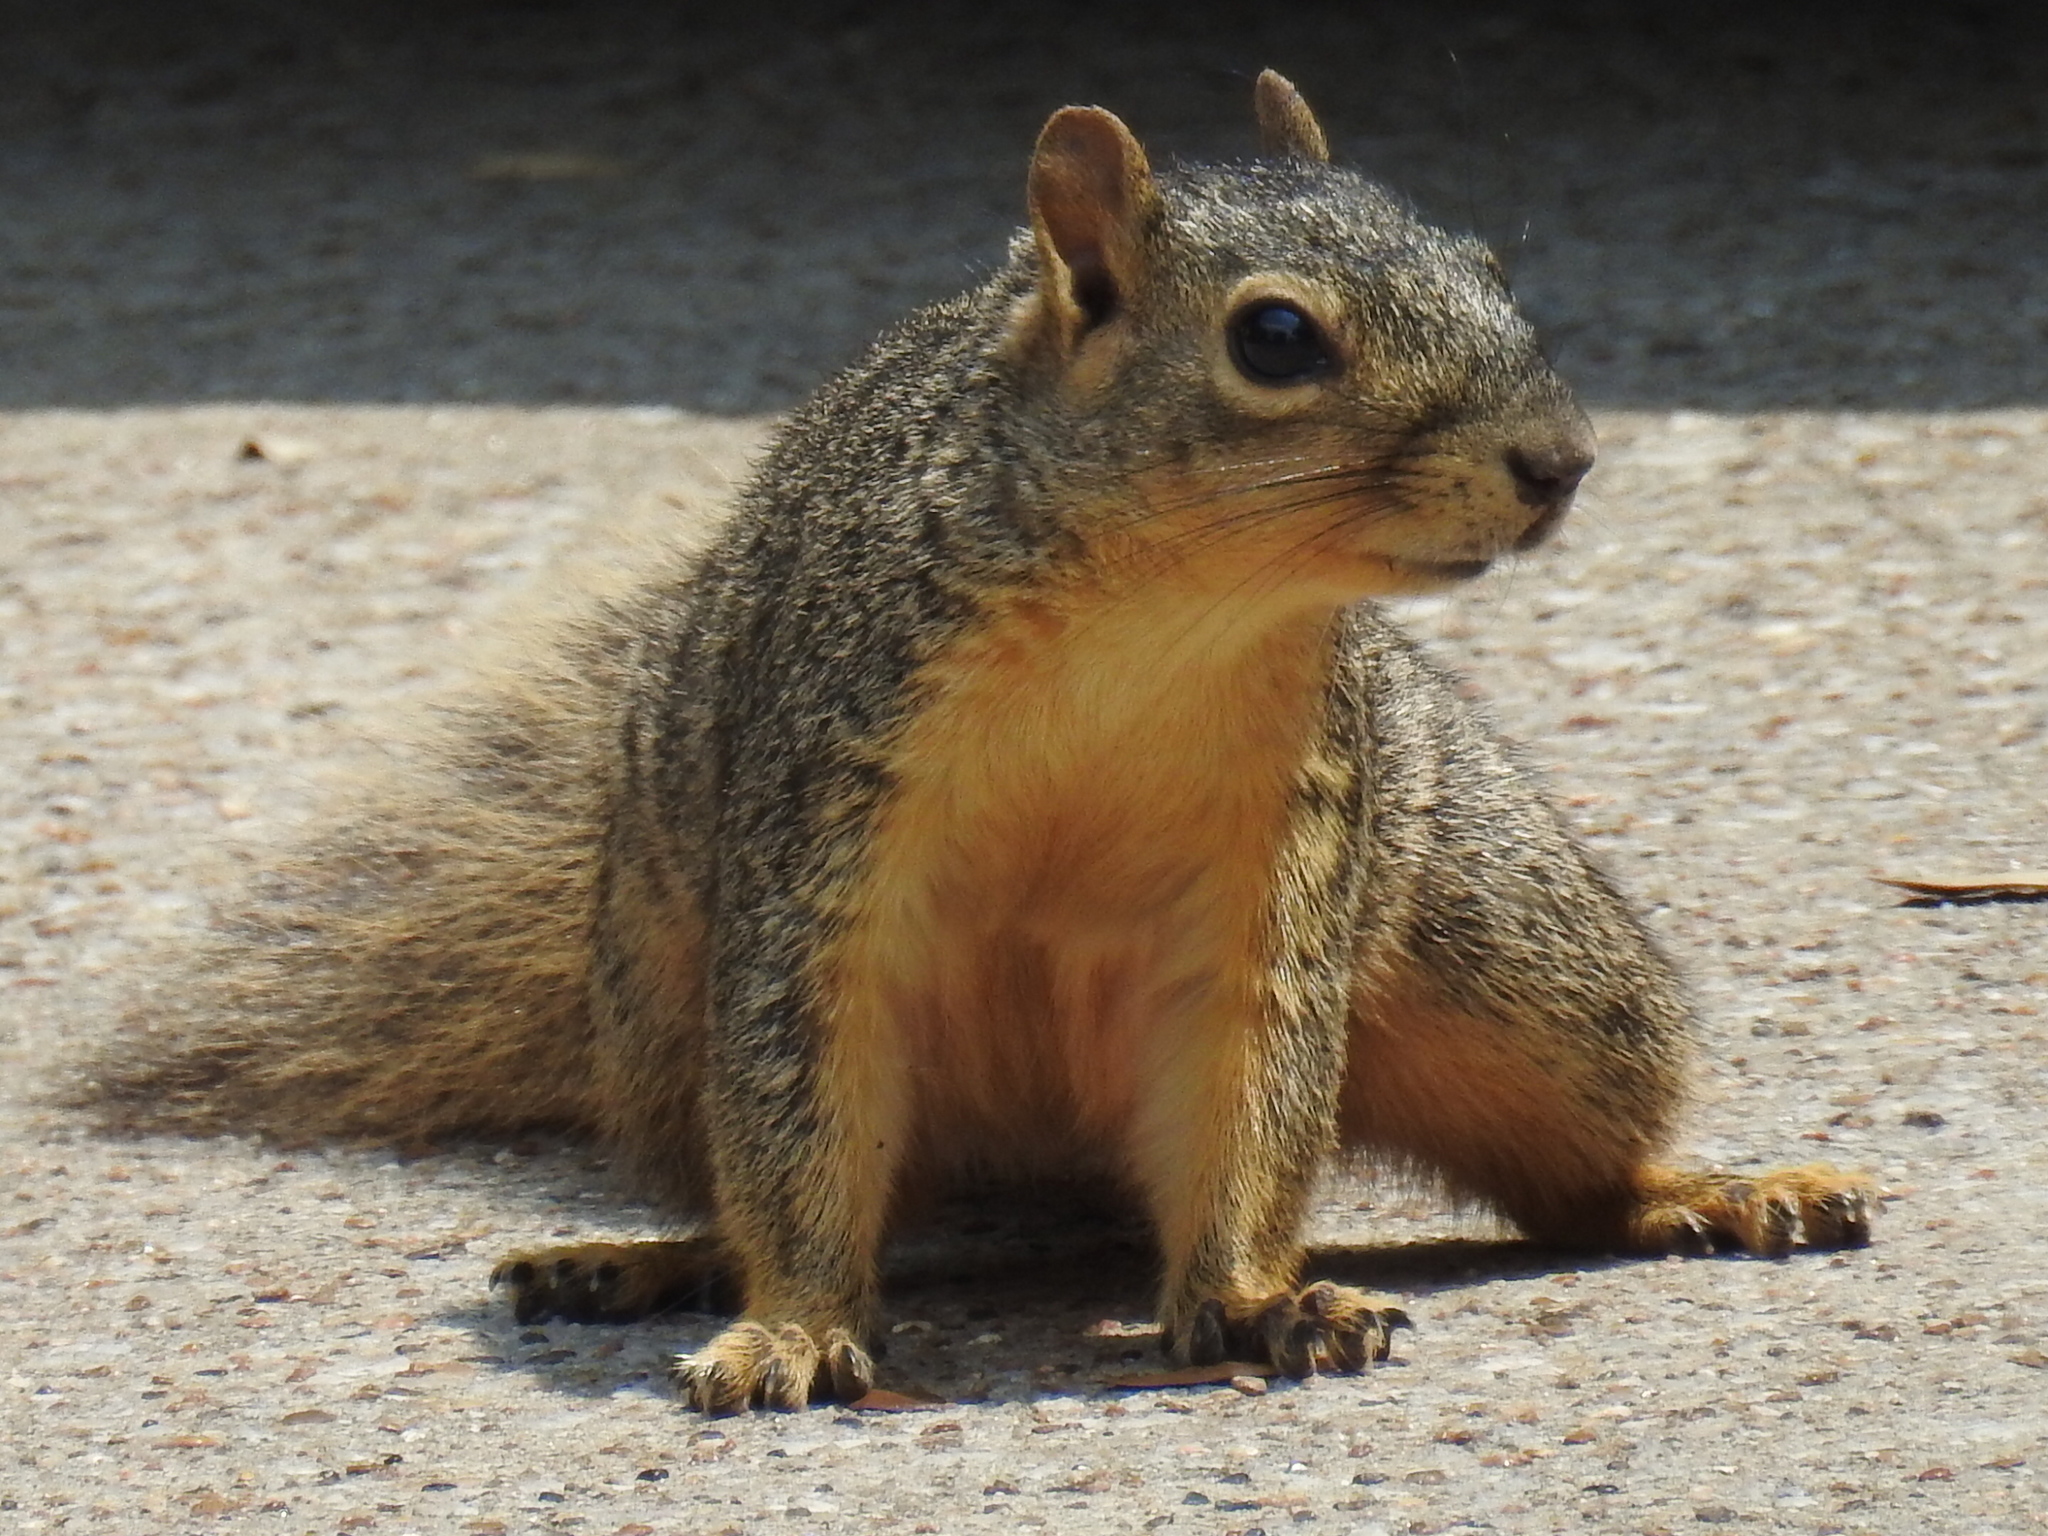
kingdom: Animalia
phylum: Chordata
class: Mammalia
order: Rodentia
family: Sciuridae
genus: Sciurus
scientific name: Sciurus niger
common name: Fox squirrel
